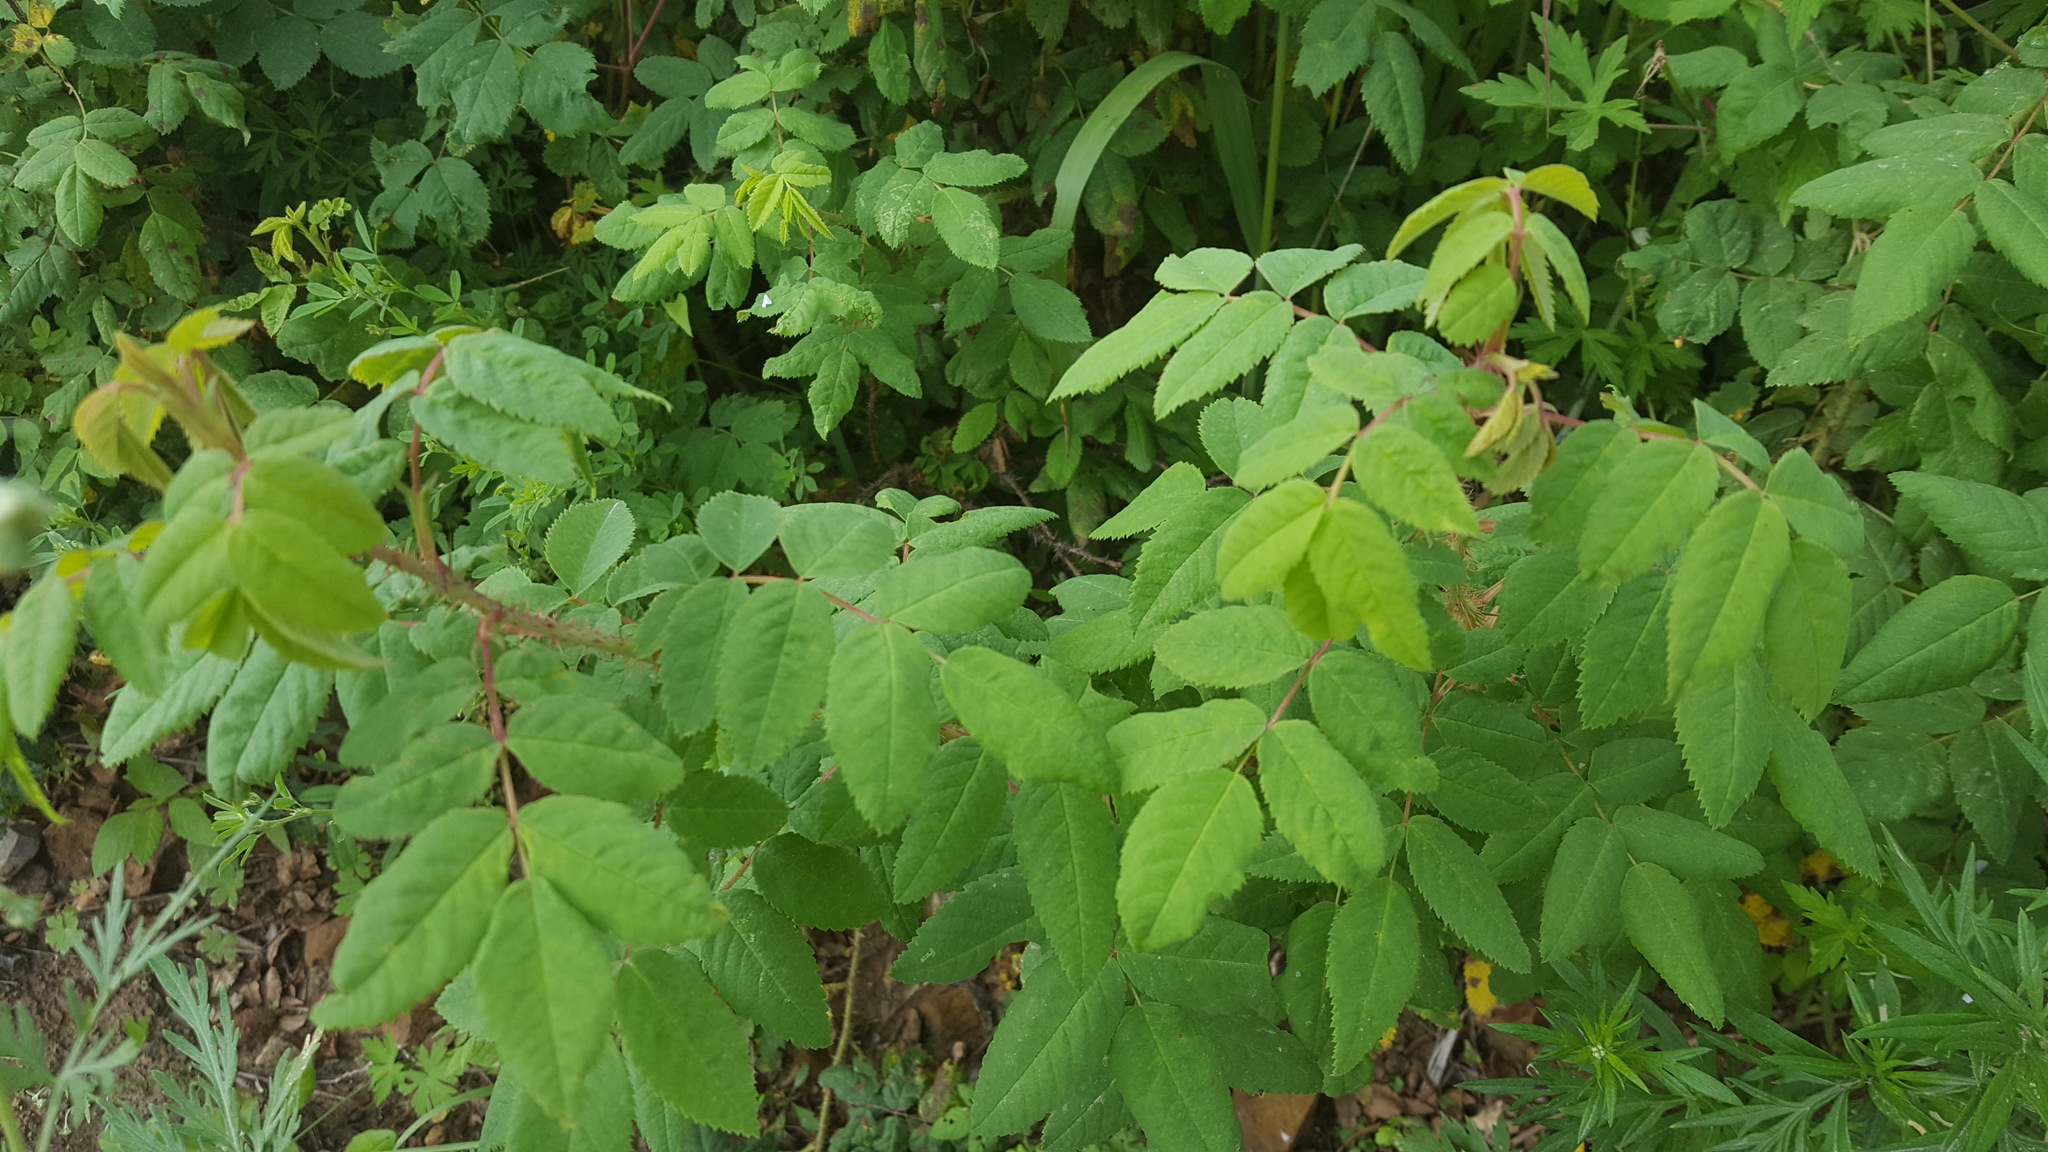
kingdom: Plantae
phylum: Tracheophyta
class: Magnoliopsida
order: Rosales
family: Rosaceae
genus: Rosa
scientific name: Rosa acicularis
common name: Prickly rose
